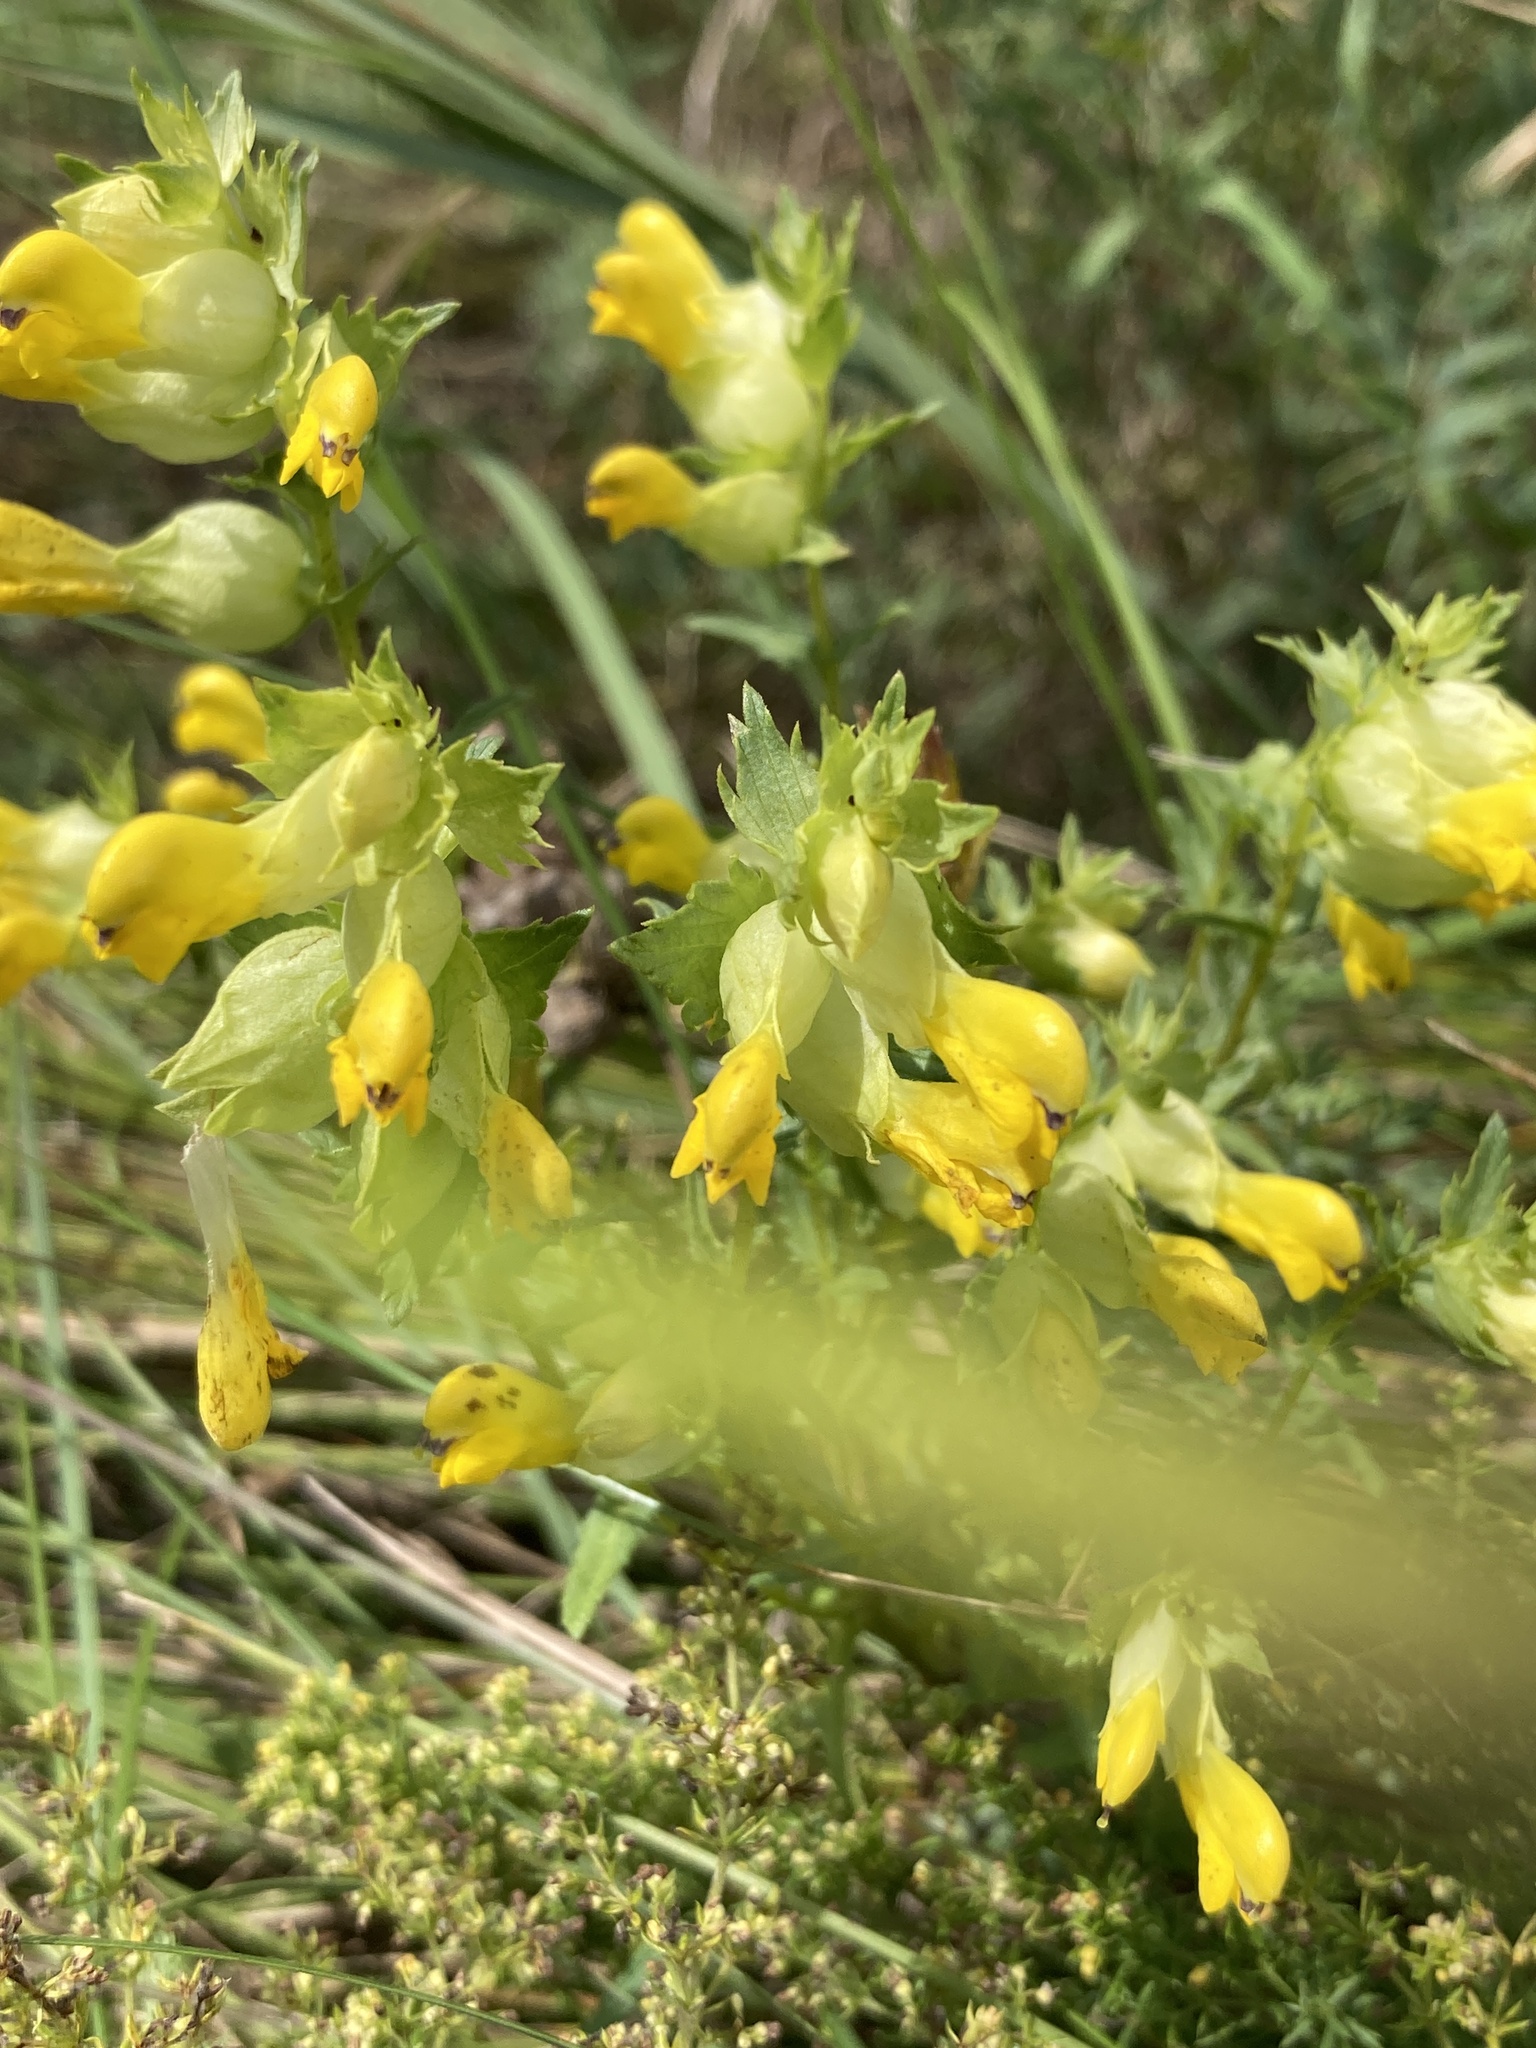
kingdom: Plantae
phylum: Tracheophyta
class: Magnoliopsida
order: Lamiales
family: Orobanchaceae
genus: Rhinanthus
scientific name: Rhinanthus serotinus
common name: Late-flowering yellow rattle
